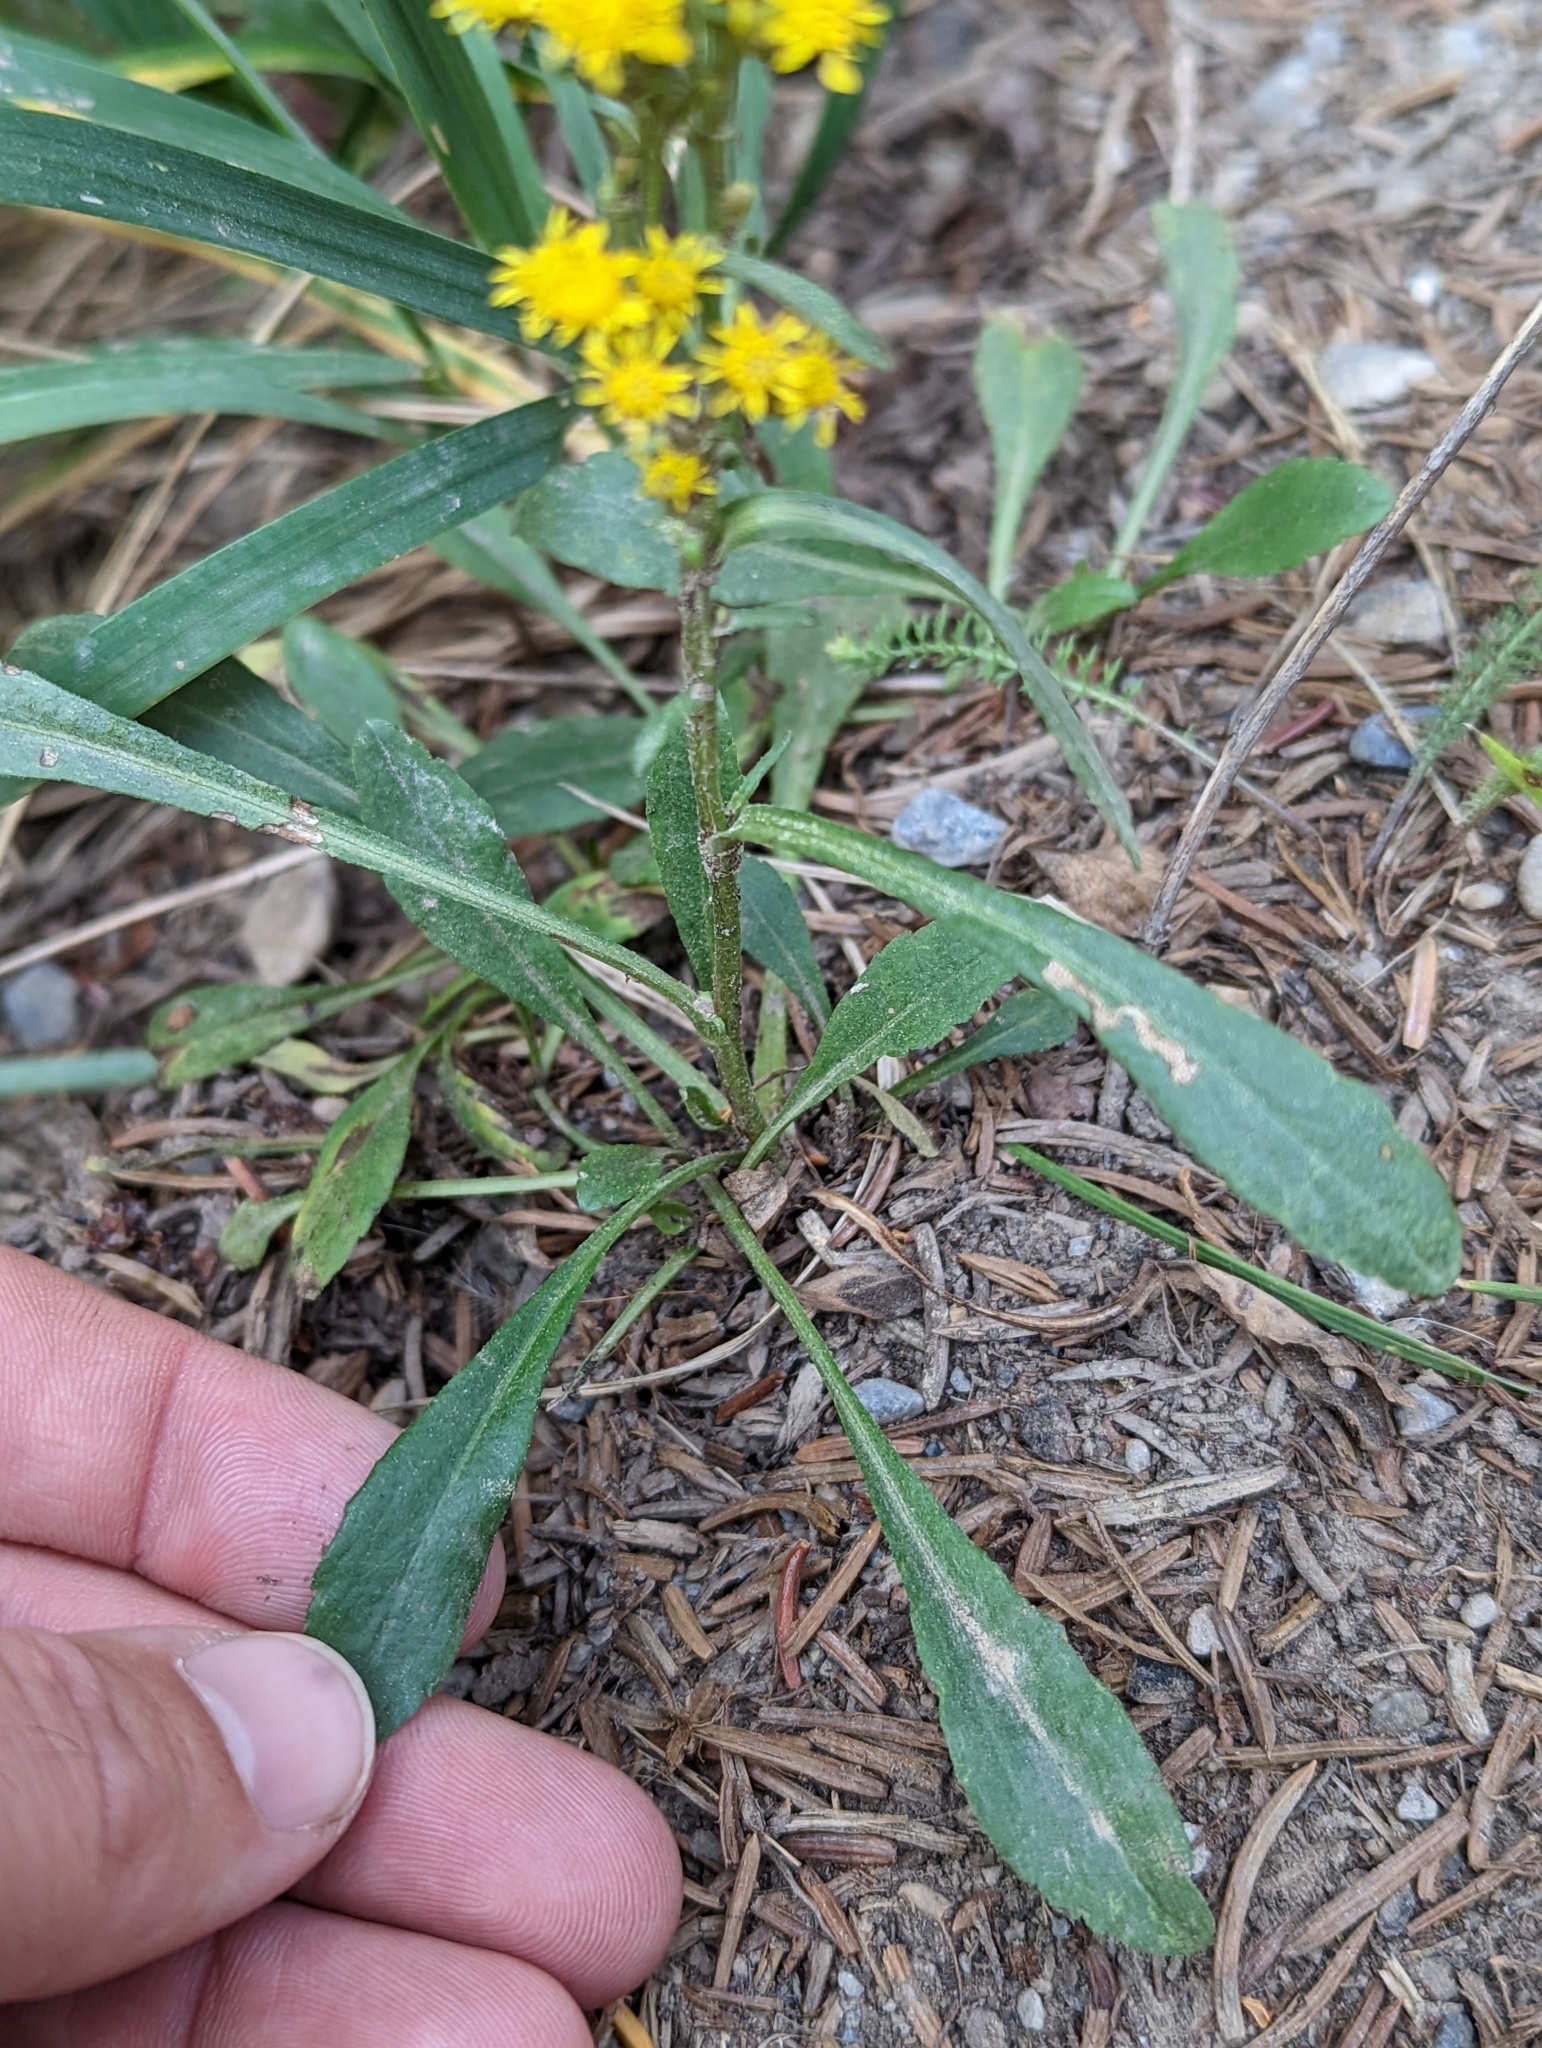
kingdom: Plantae
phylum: Tracheophyta
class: Magnoliopsida
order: Asterales
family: Asteraceae
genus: Solidago
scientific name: Solidago glutinosa
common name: Decumbent goldenrod
